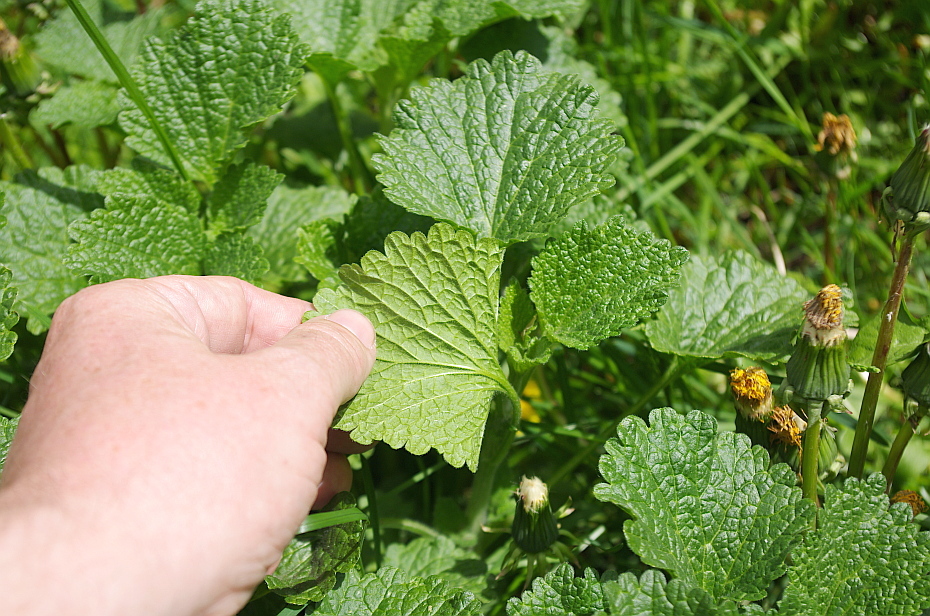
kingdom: Plantae
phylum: Tracheophyta
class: Magnoliopsida
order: Lamiales
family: Lamiaceae
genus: Ballota
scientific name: Ballota nigra
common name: Black horehound
